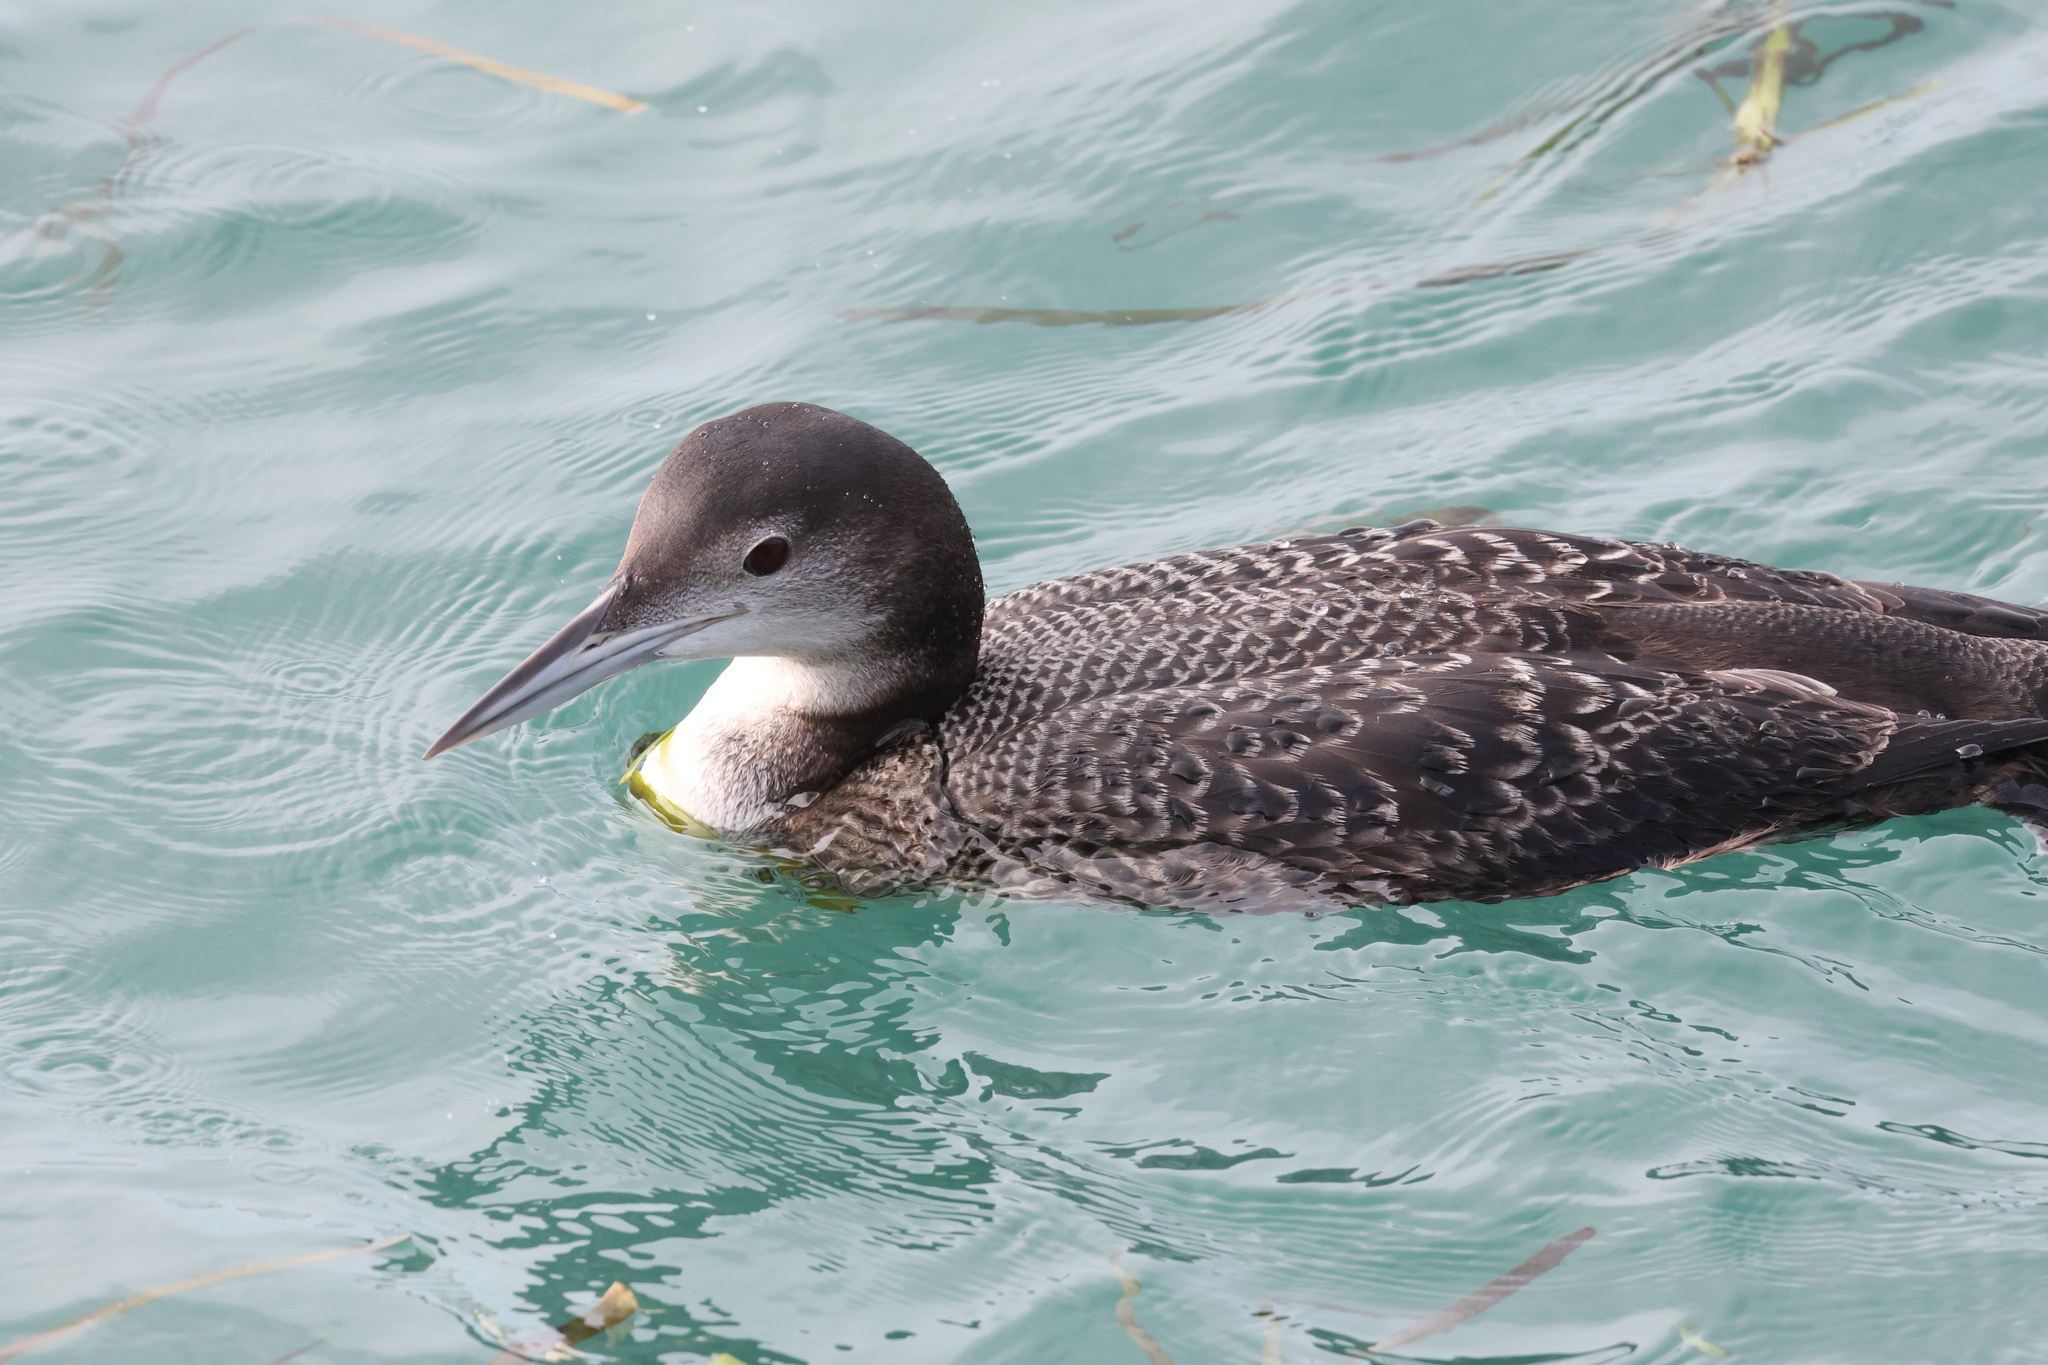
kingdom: Animalia
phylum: Chordata
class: Aves
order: Gaviiformes
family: Gaviidae
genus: Gavia
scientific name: Gavia immer
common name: Common loon
